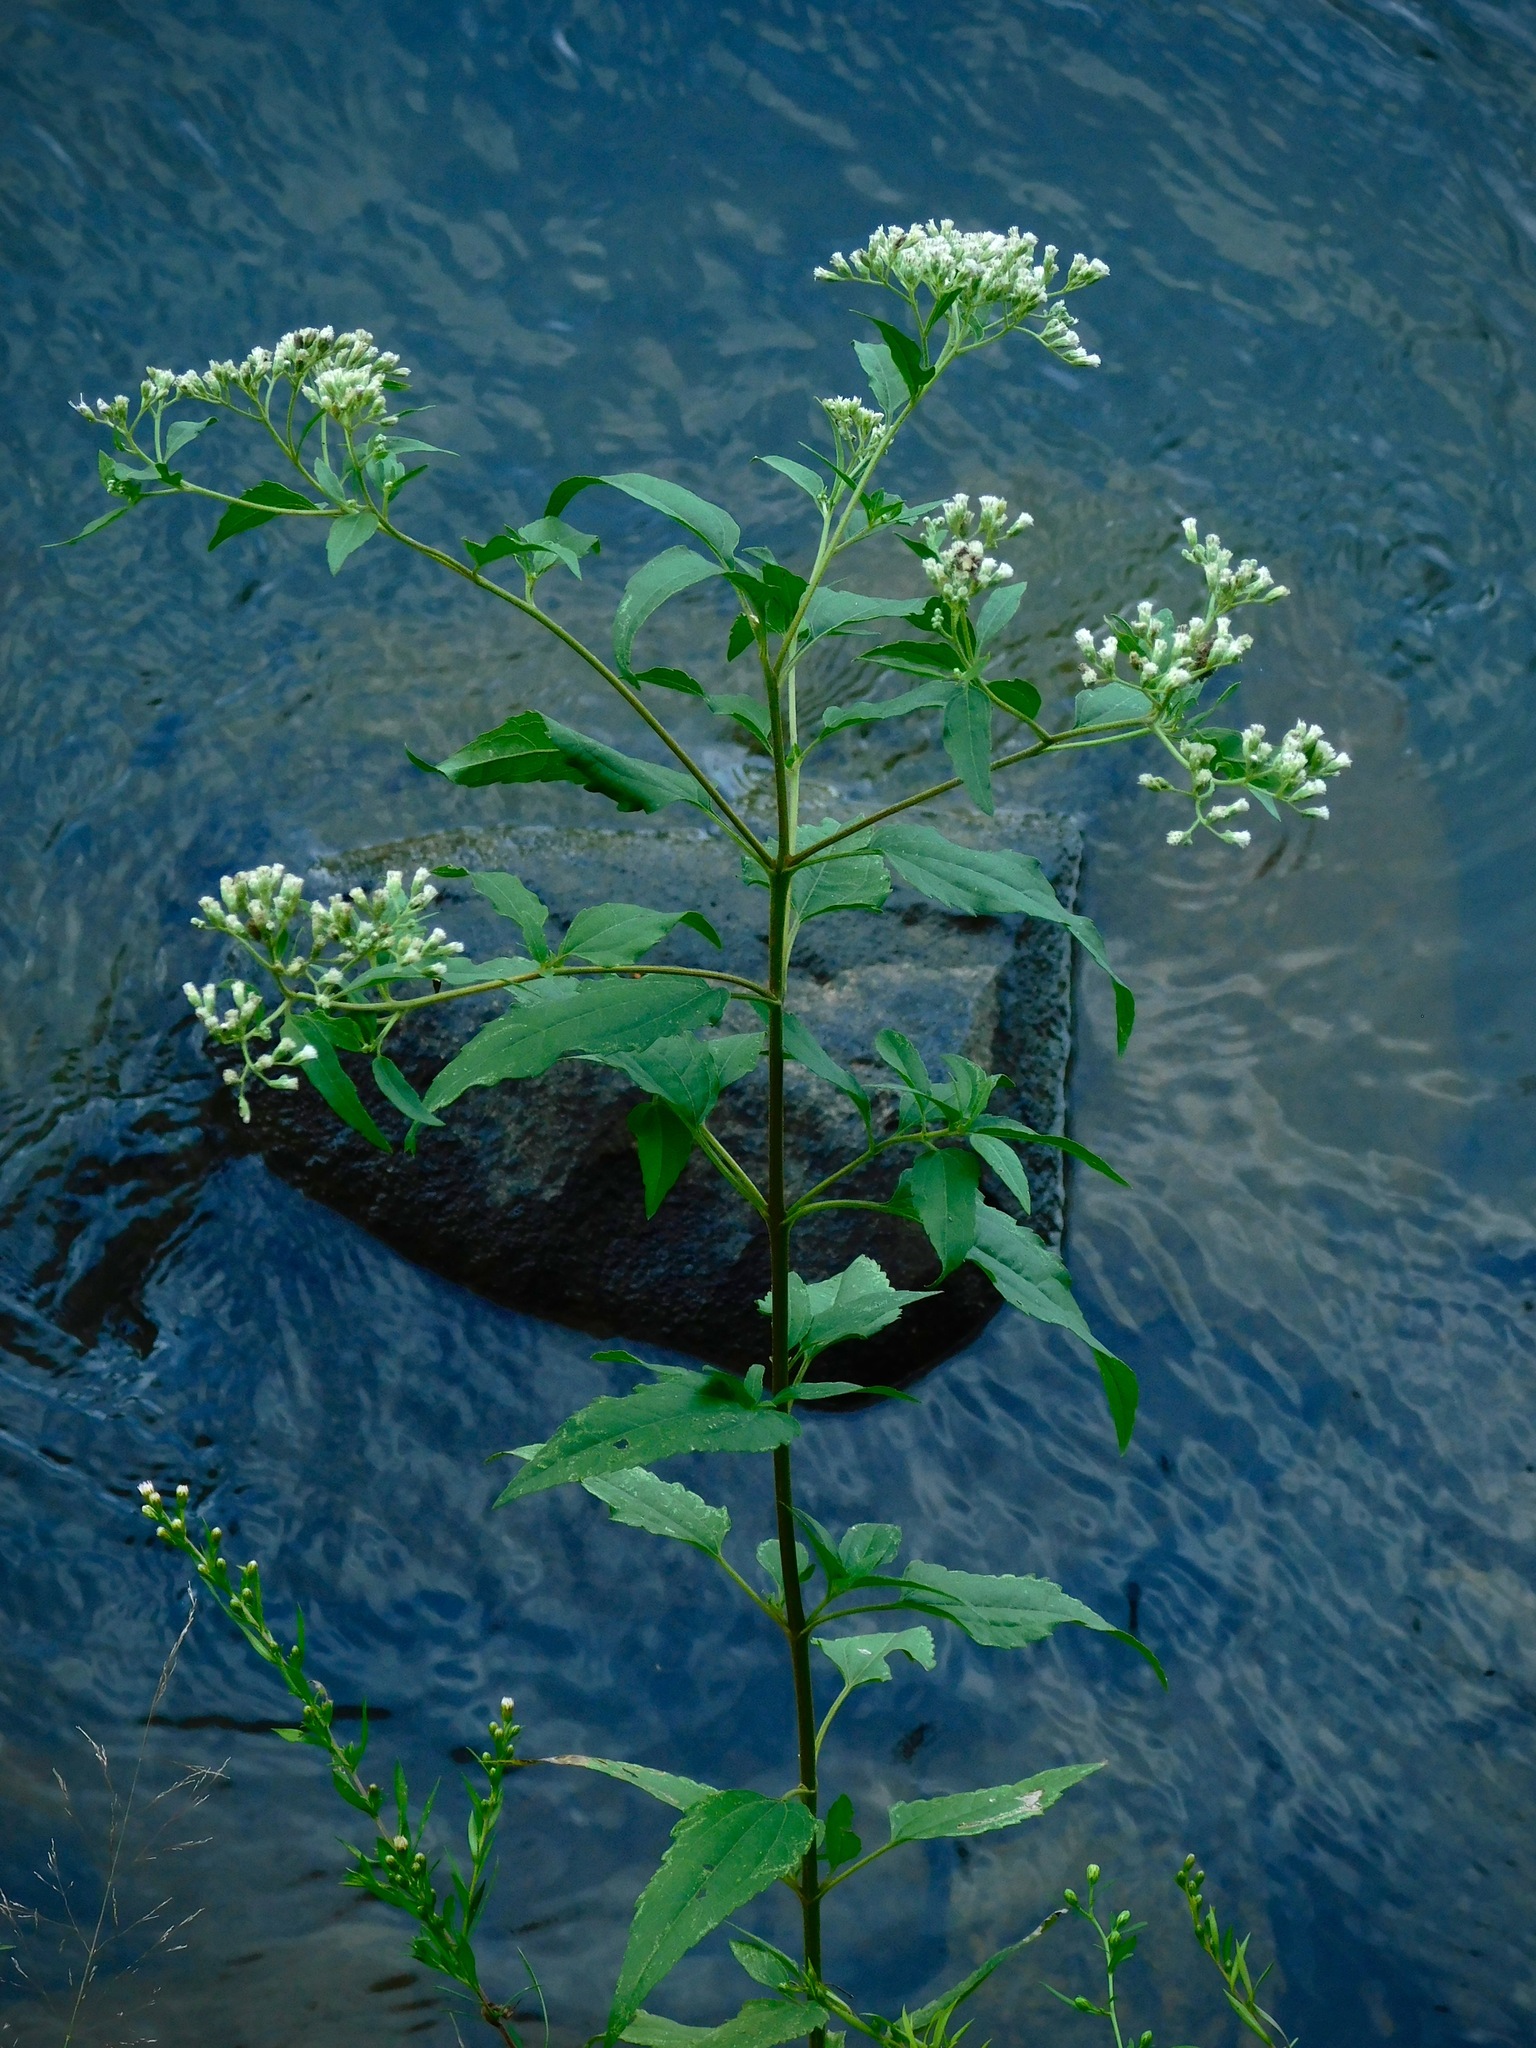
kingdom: Plantae
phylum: Tracheophyta
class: Magnoliopsida
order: Asterales
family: Asteraceae
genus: Eupatorium
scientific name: Eupatorium serotinum
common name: Late boneset
